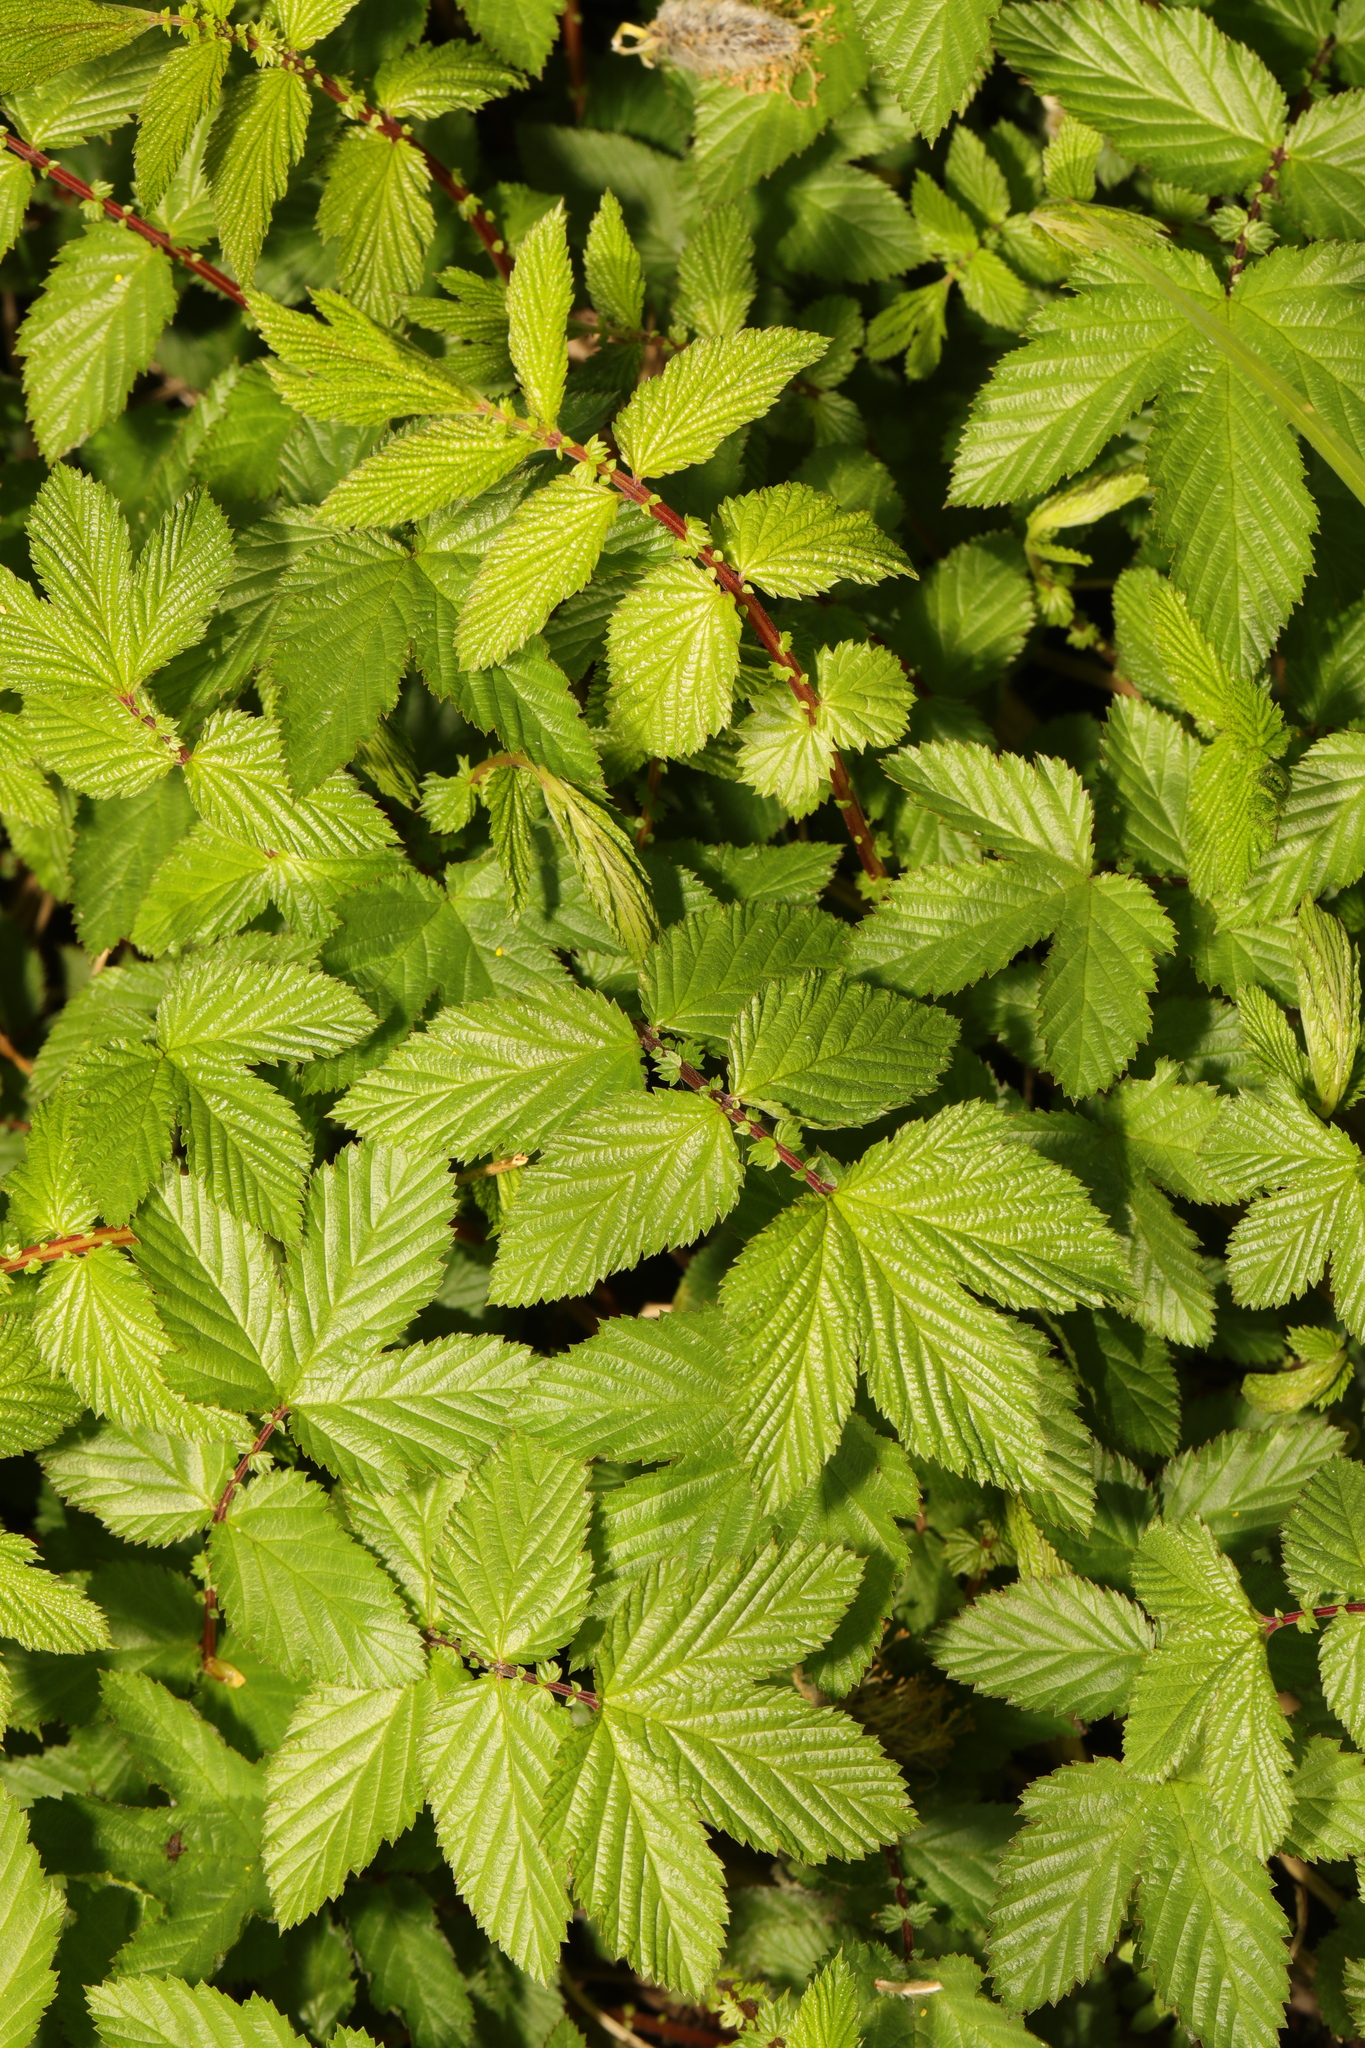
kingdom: Plantae
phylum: Tracheophyta
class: Magnoliopsida
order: Rosales
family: Rosaceae
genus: Filipendula
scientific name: Filipendula ulmaria
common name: Meadowsweet
